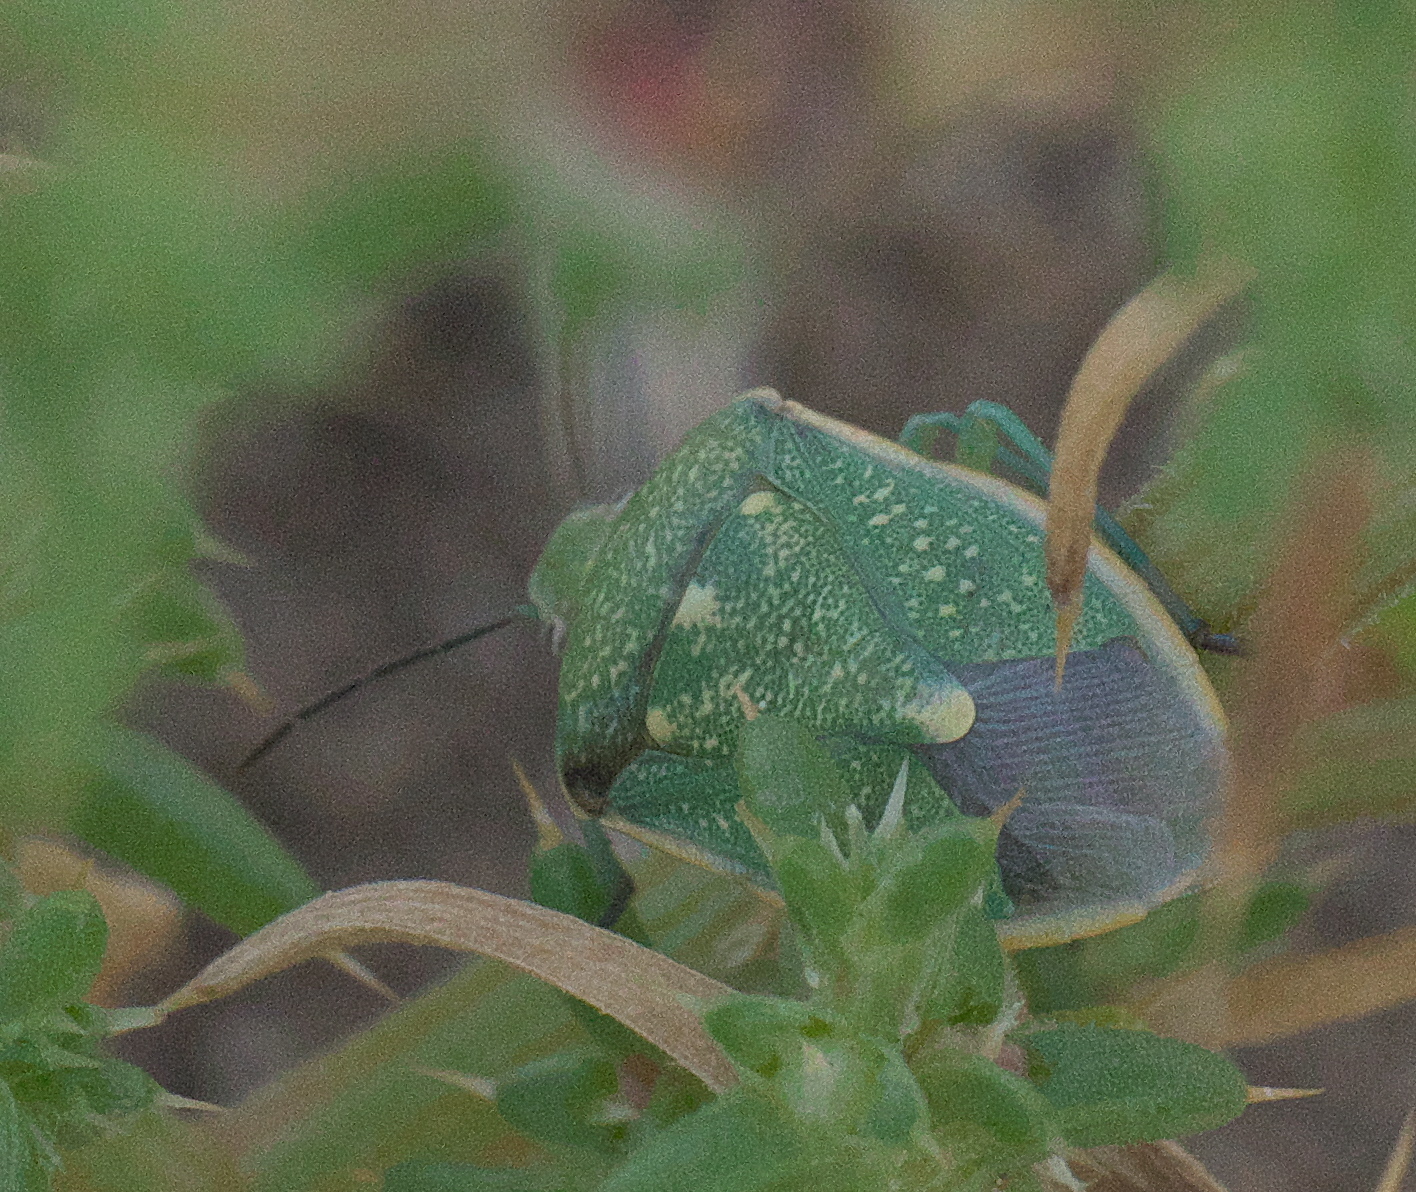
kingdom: Animalia
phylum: Arthropoda
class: Insecta
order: Hemiptera
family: Pentatomidae
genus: Chlorochroa
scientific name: Chlorochroa sayi
